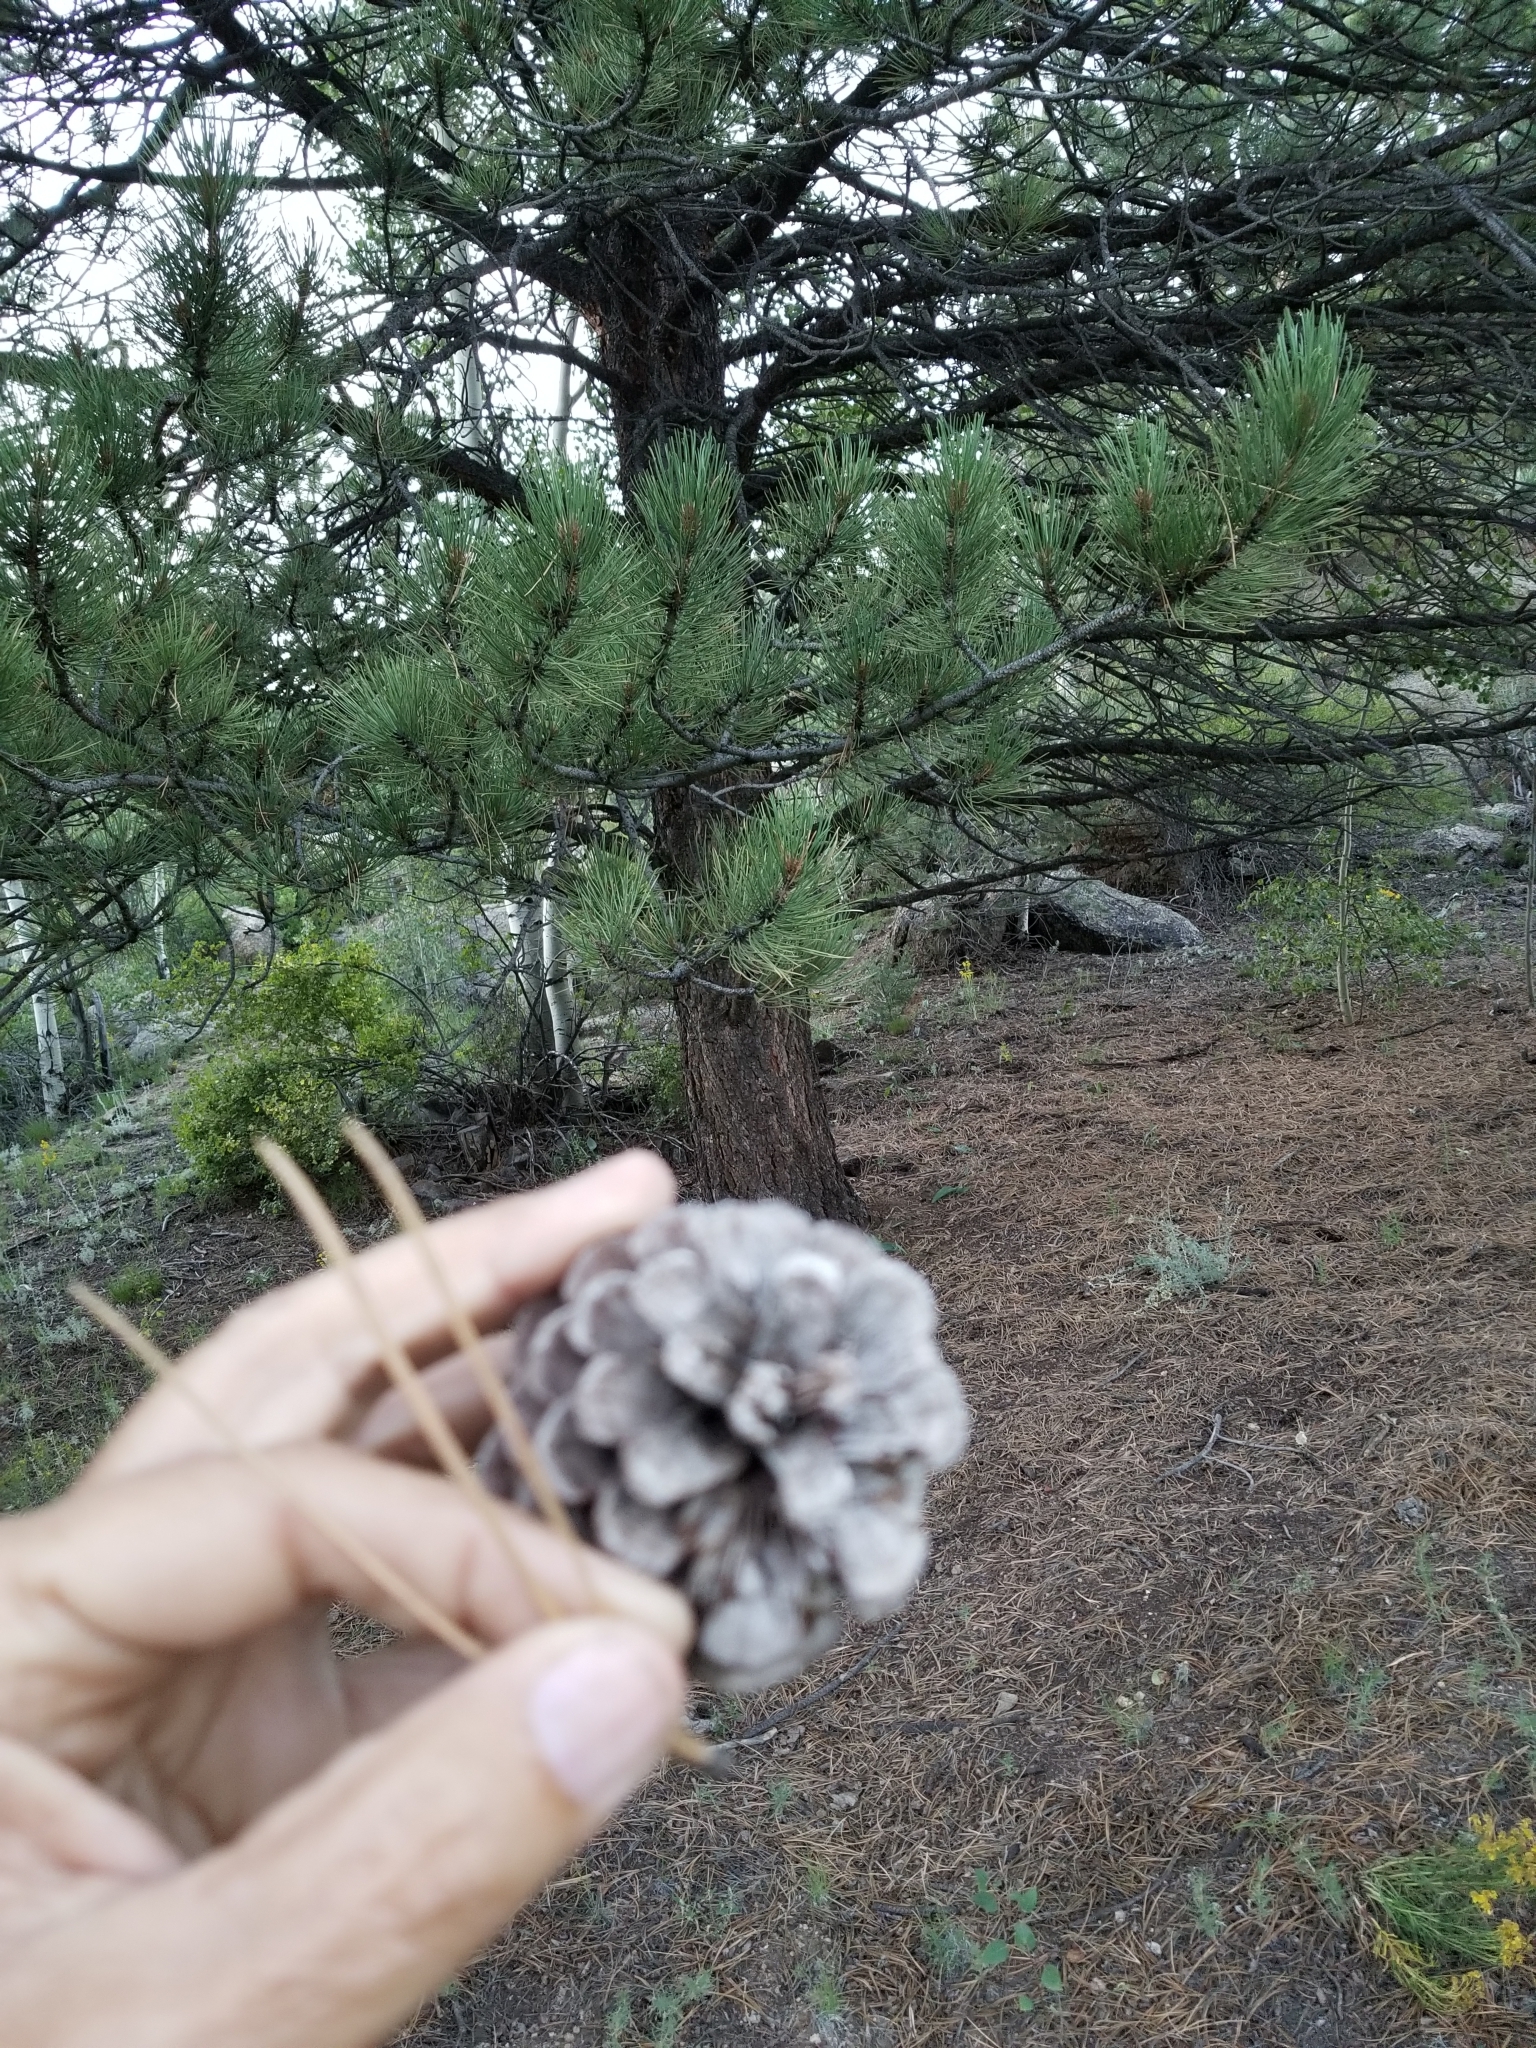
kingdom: Plantae
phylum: Tracheophyta
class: Pinopsida
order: Pinales
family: Pinaceae
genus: Pinus
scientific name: Pinus ponderosa
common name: Western yellow-pine
